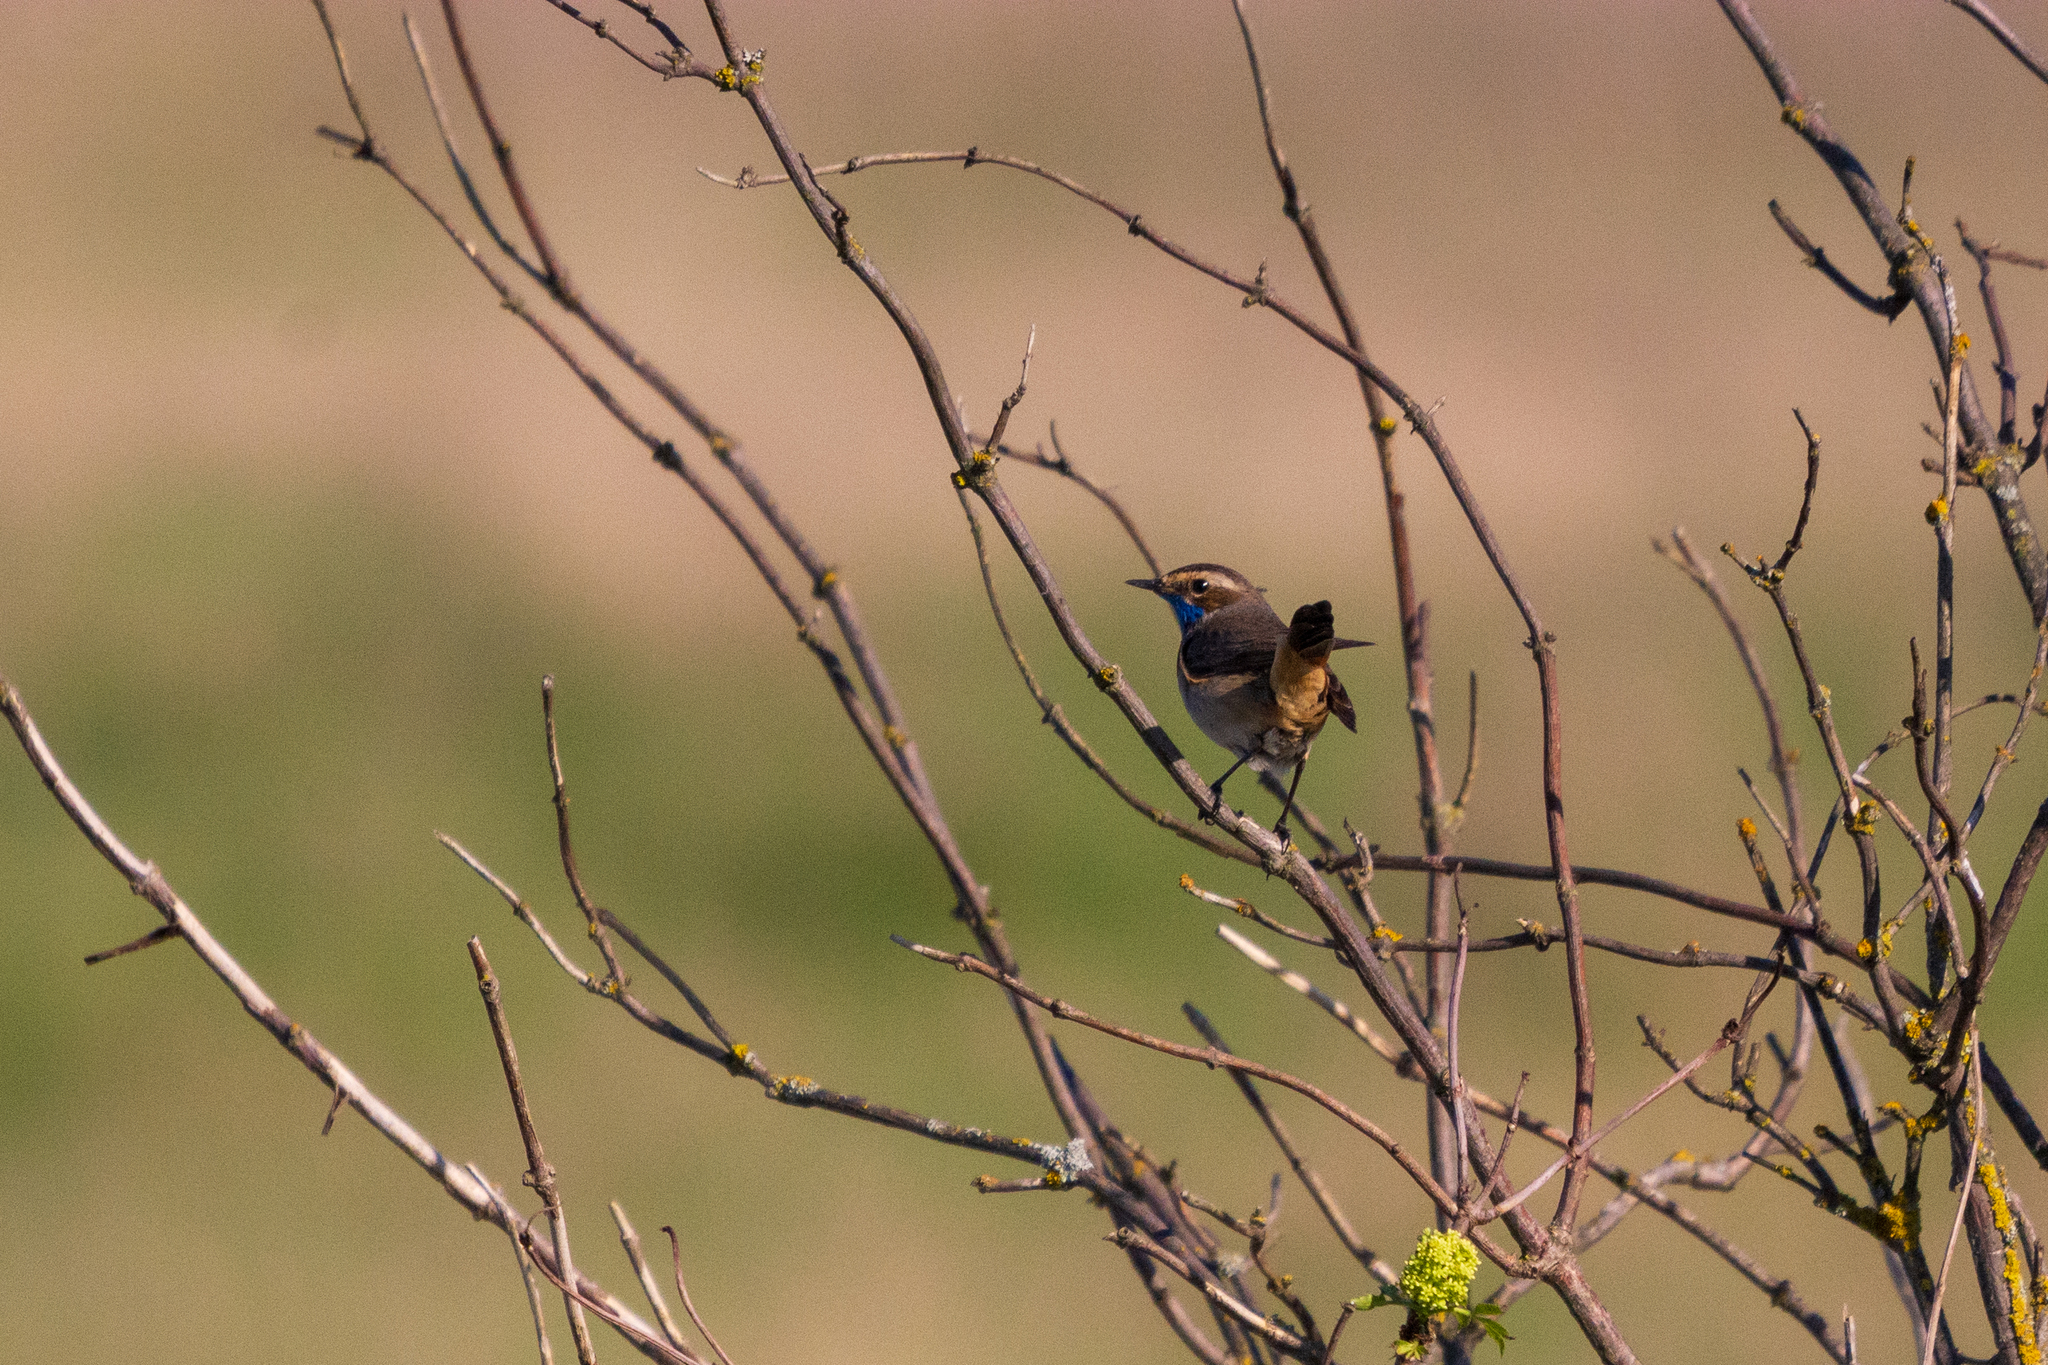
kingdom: Animalia
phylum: Chordata
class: Aves
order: Passeriformes
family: Muscicapidae
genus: Luscinia
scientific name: Luscinia svecica
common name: Bluethroat
